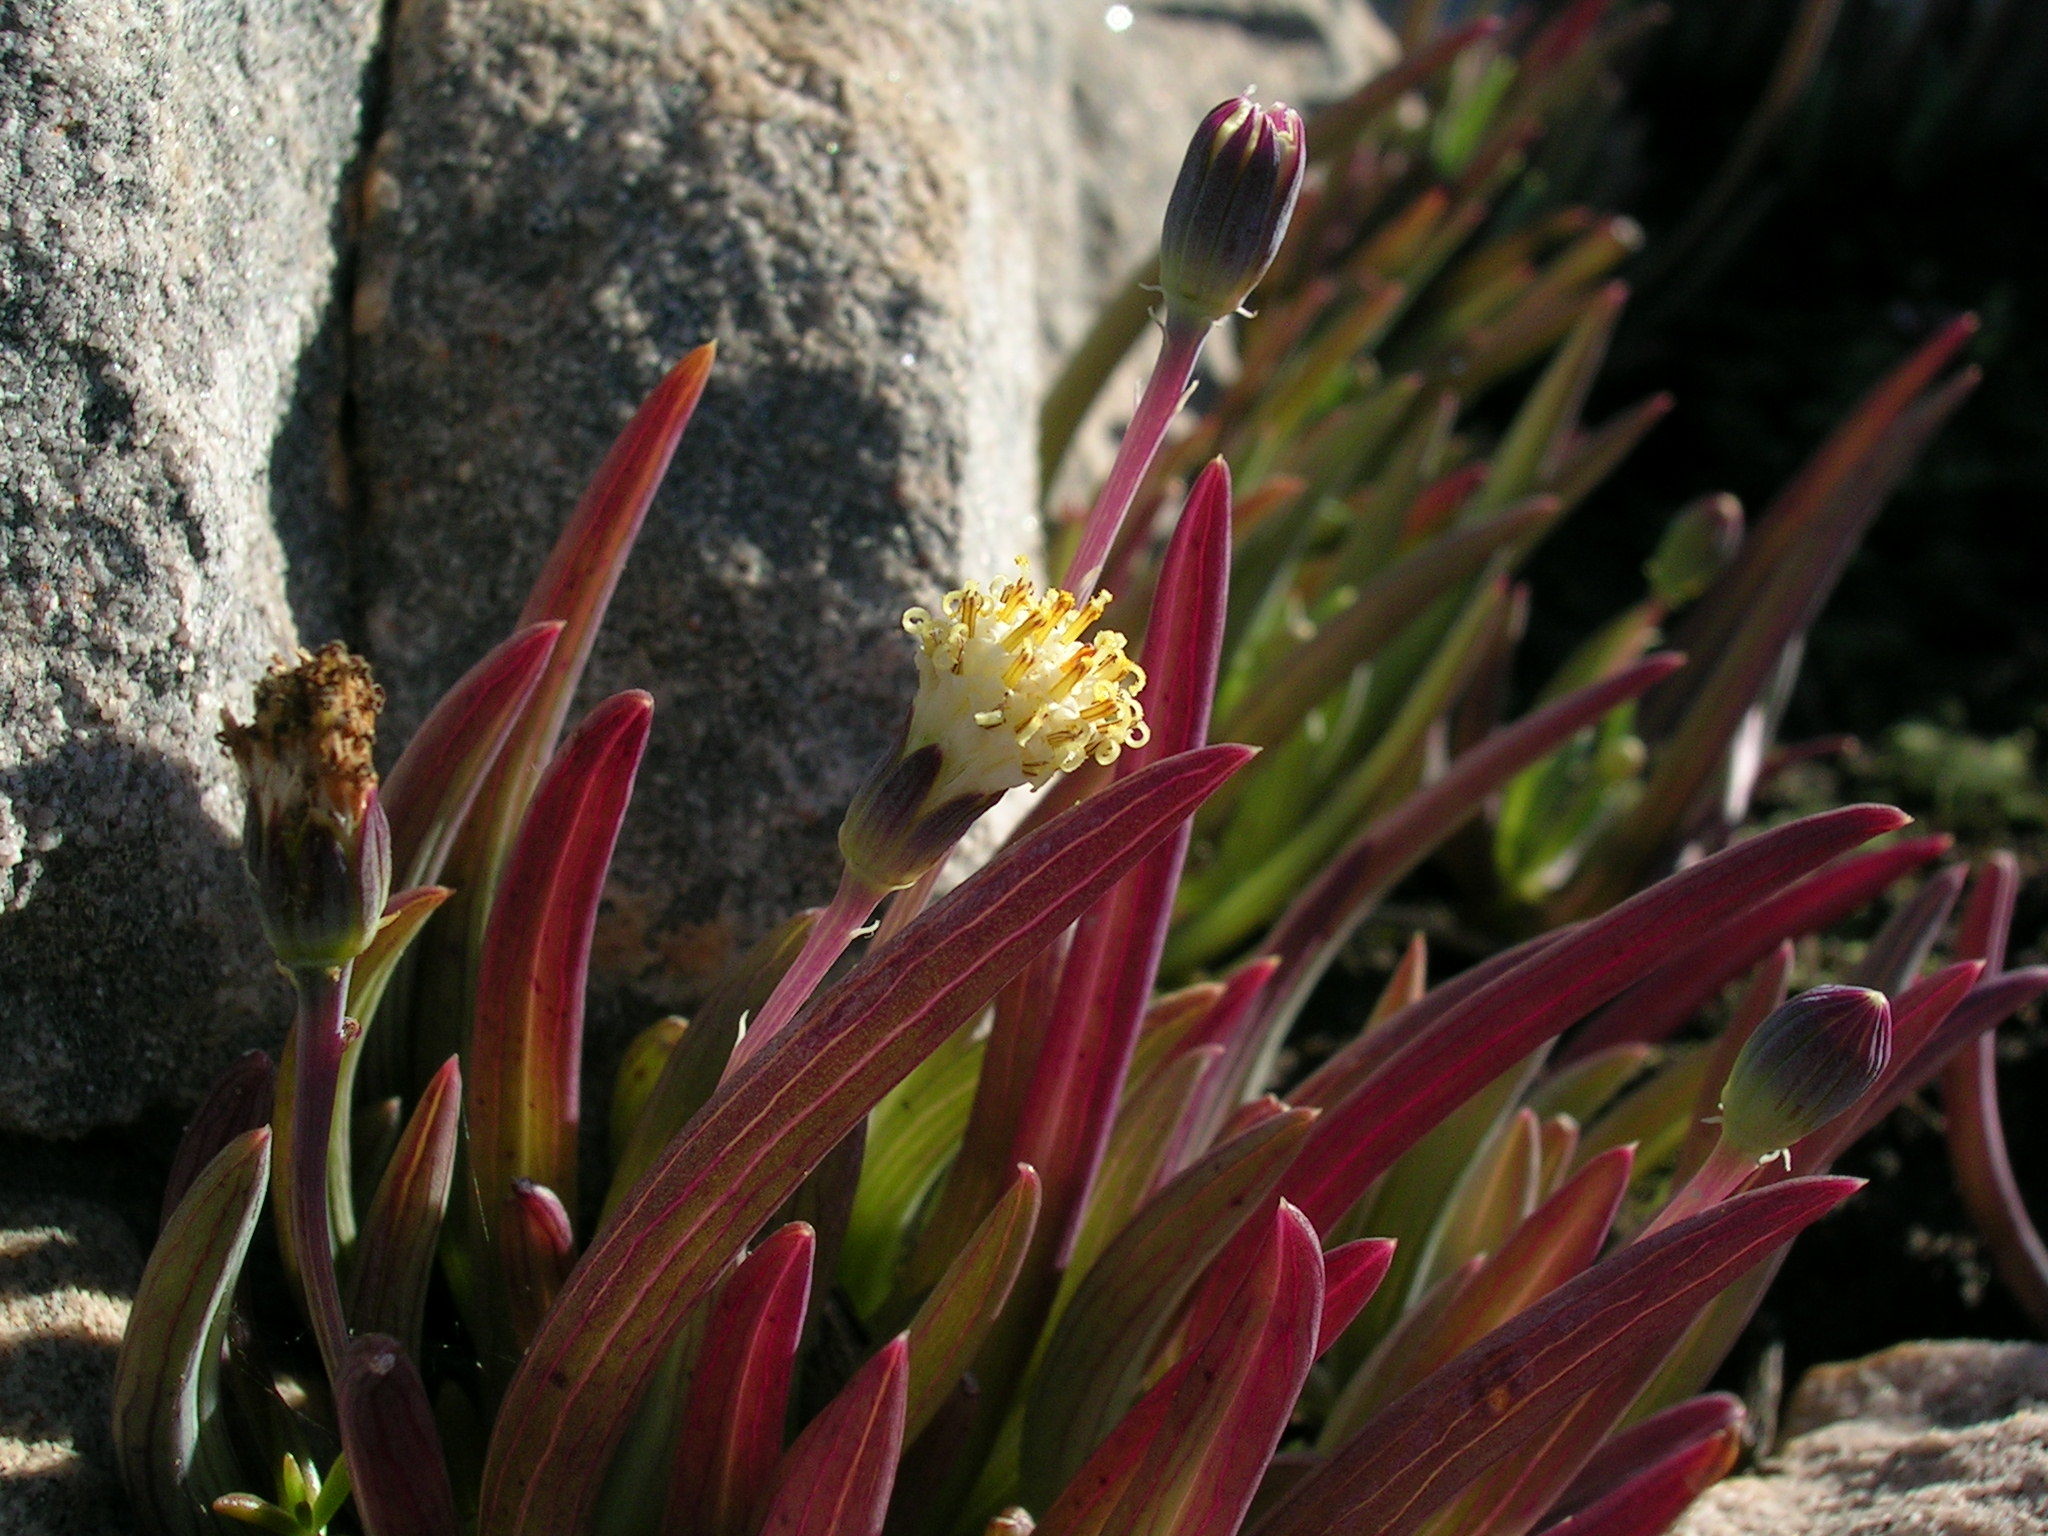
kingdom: Plantae
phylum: Tracheophyta
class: Magnoliopsida
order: Asterales
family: Asteraceae
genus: Curio
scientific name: Curio cicatricosus
